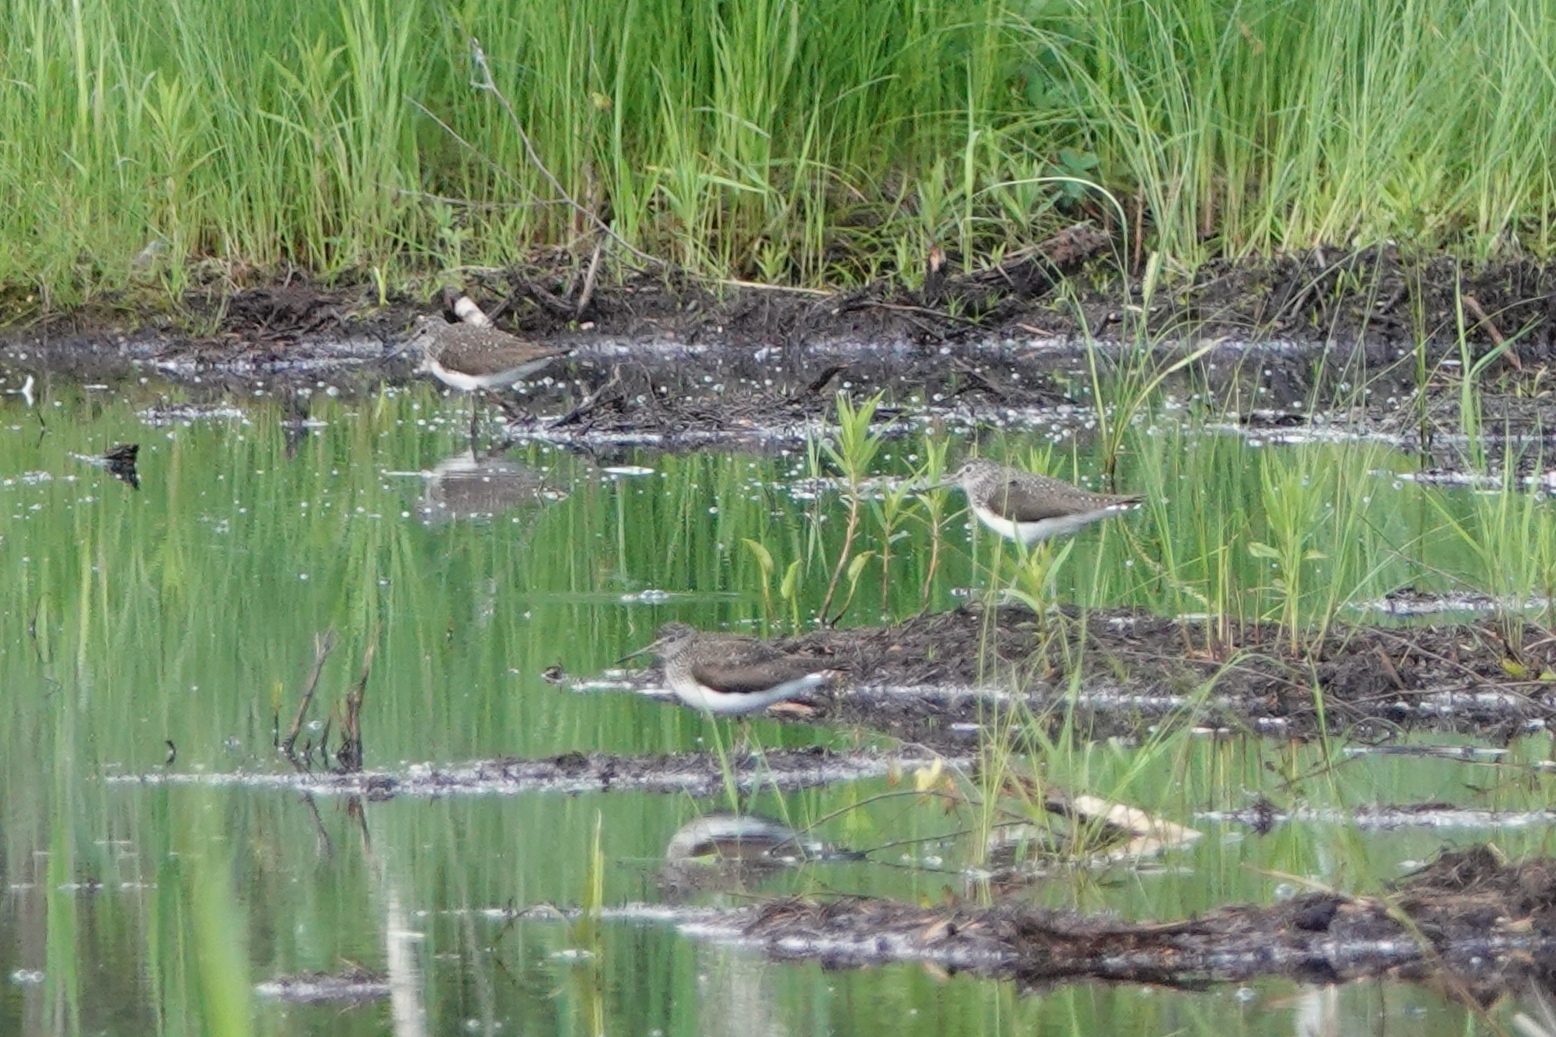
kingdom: Animalia
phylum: Chordata
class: Aves
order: Charadriiformes
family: Scolopacidae
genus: Tringa
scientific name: Tringa ochropus
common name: Green sandpiper
